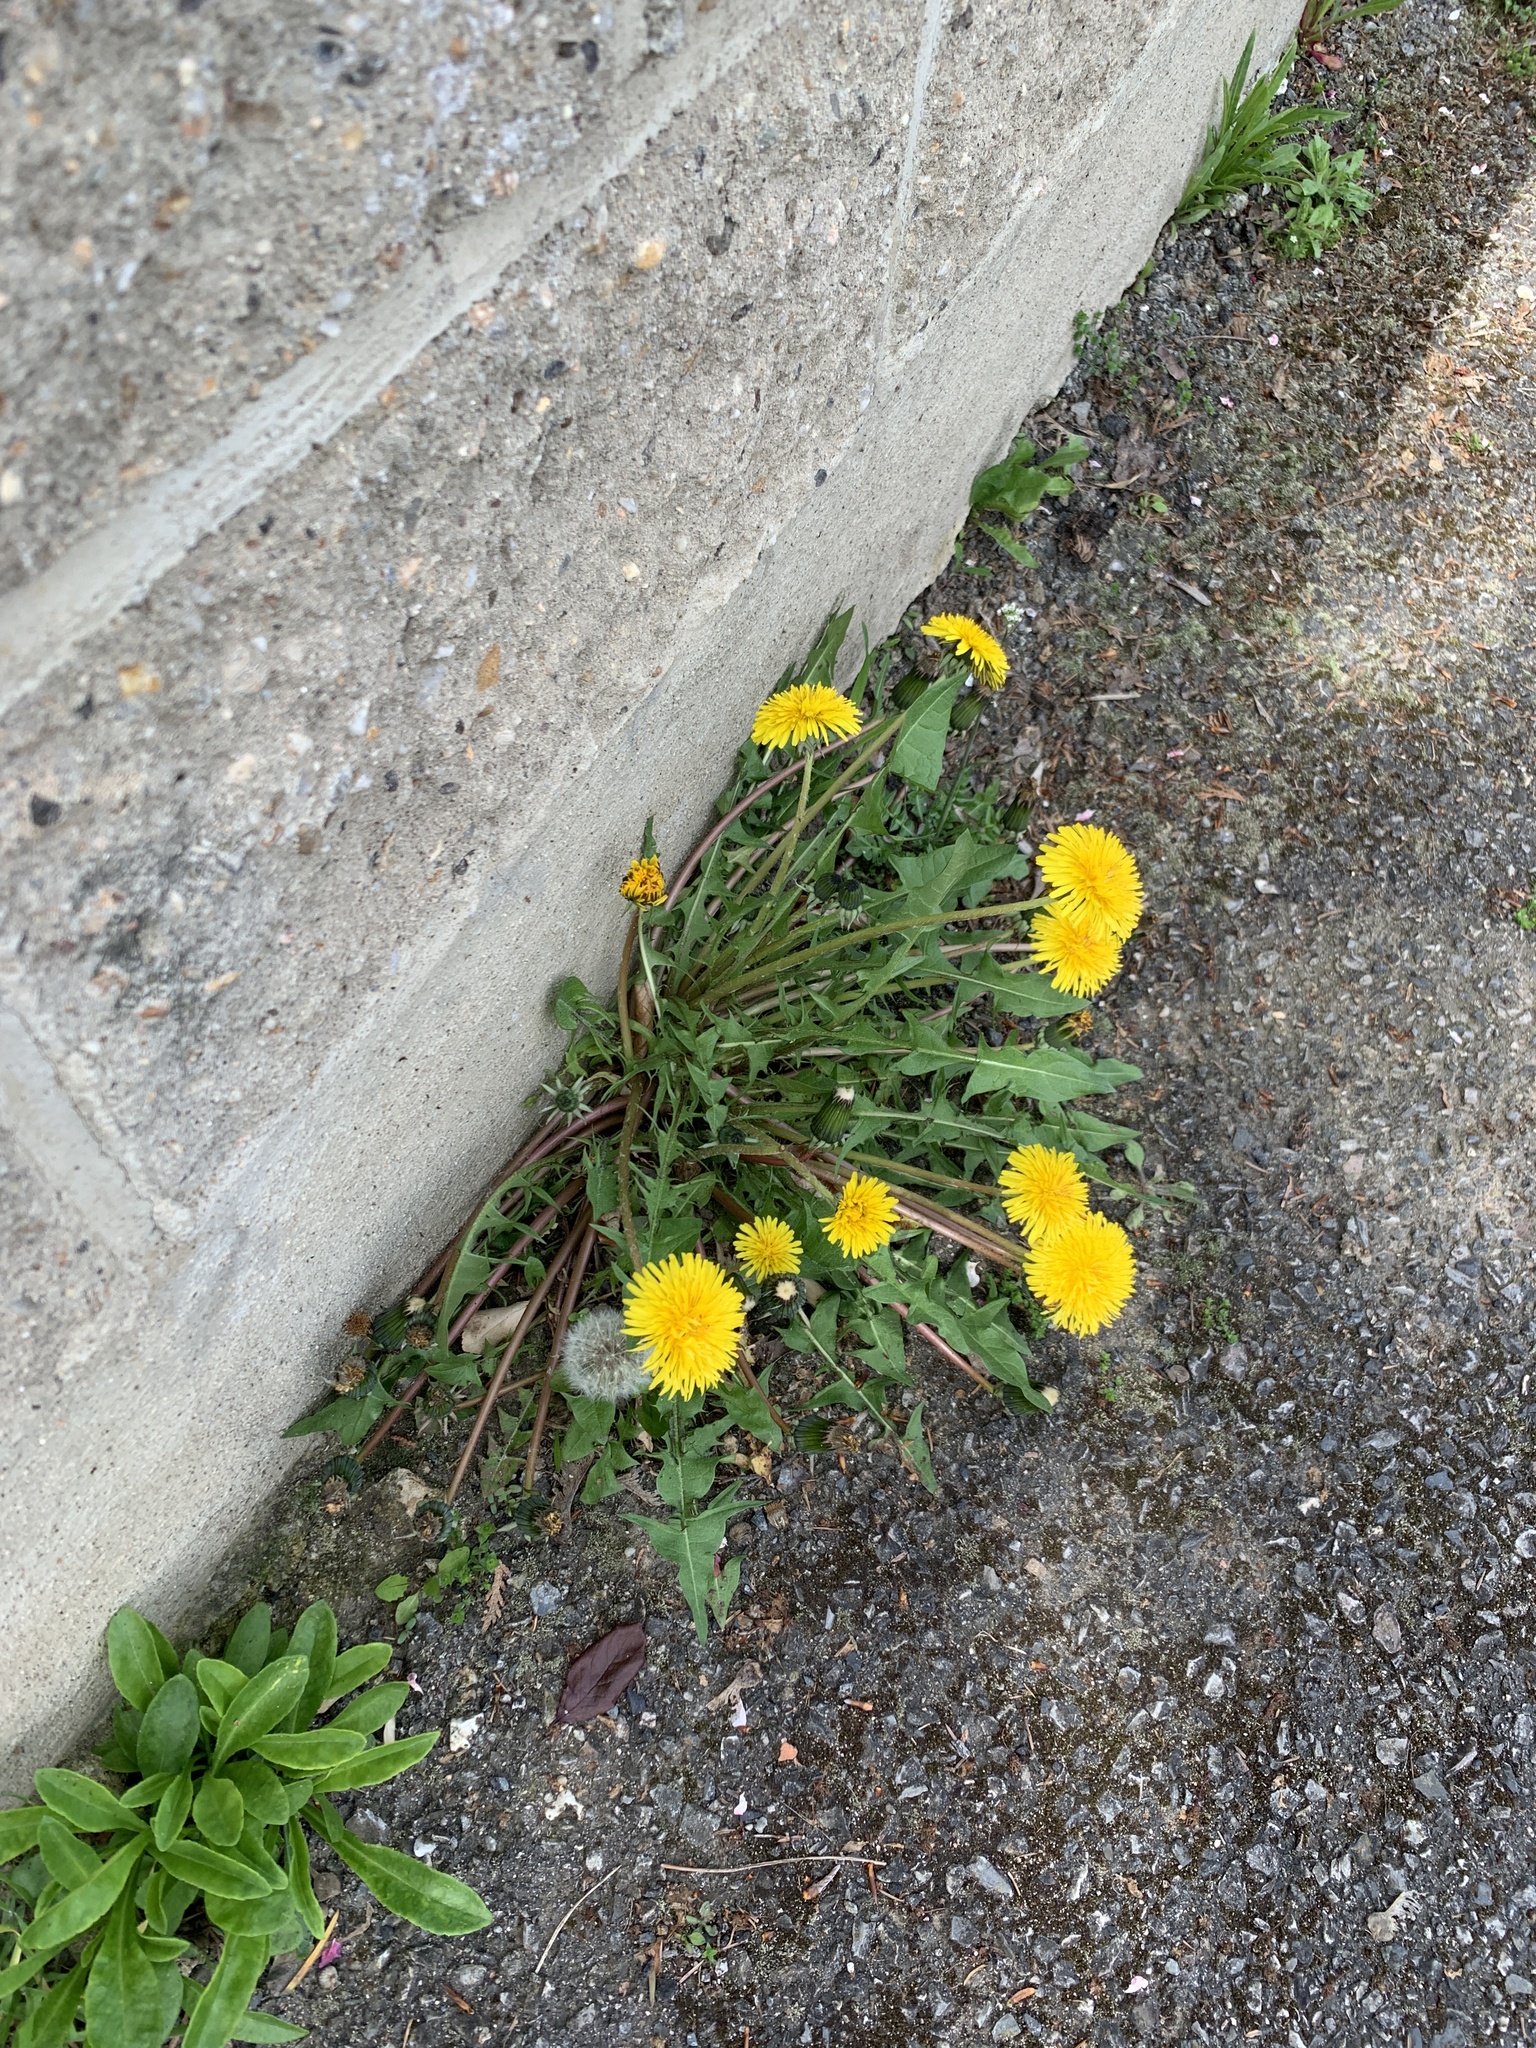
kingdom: Plantae
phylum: Tracheophyta
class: Magnoliopsida
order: Asterales
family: Asteraceae
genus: Taraxacum
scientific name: Taraxacum officinale
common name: Common dandelion
